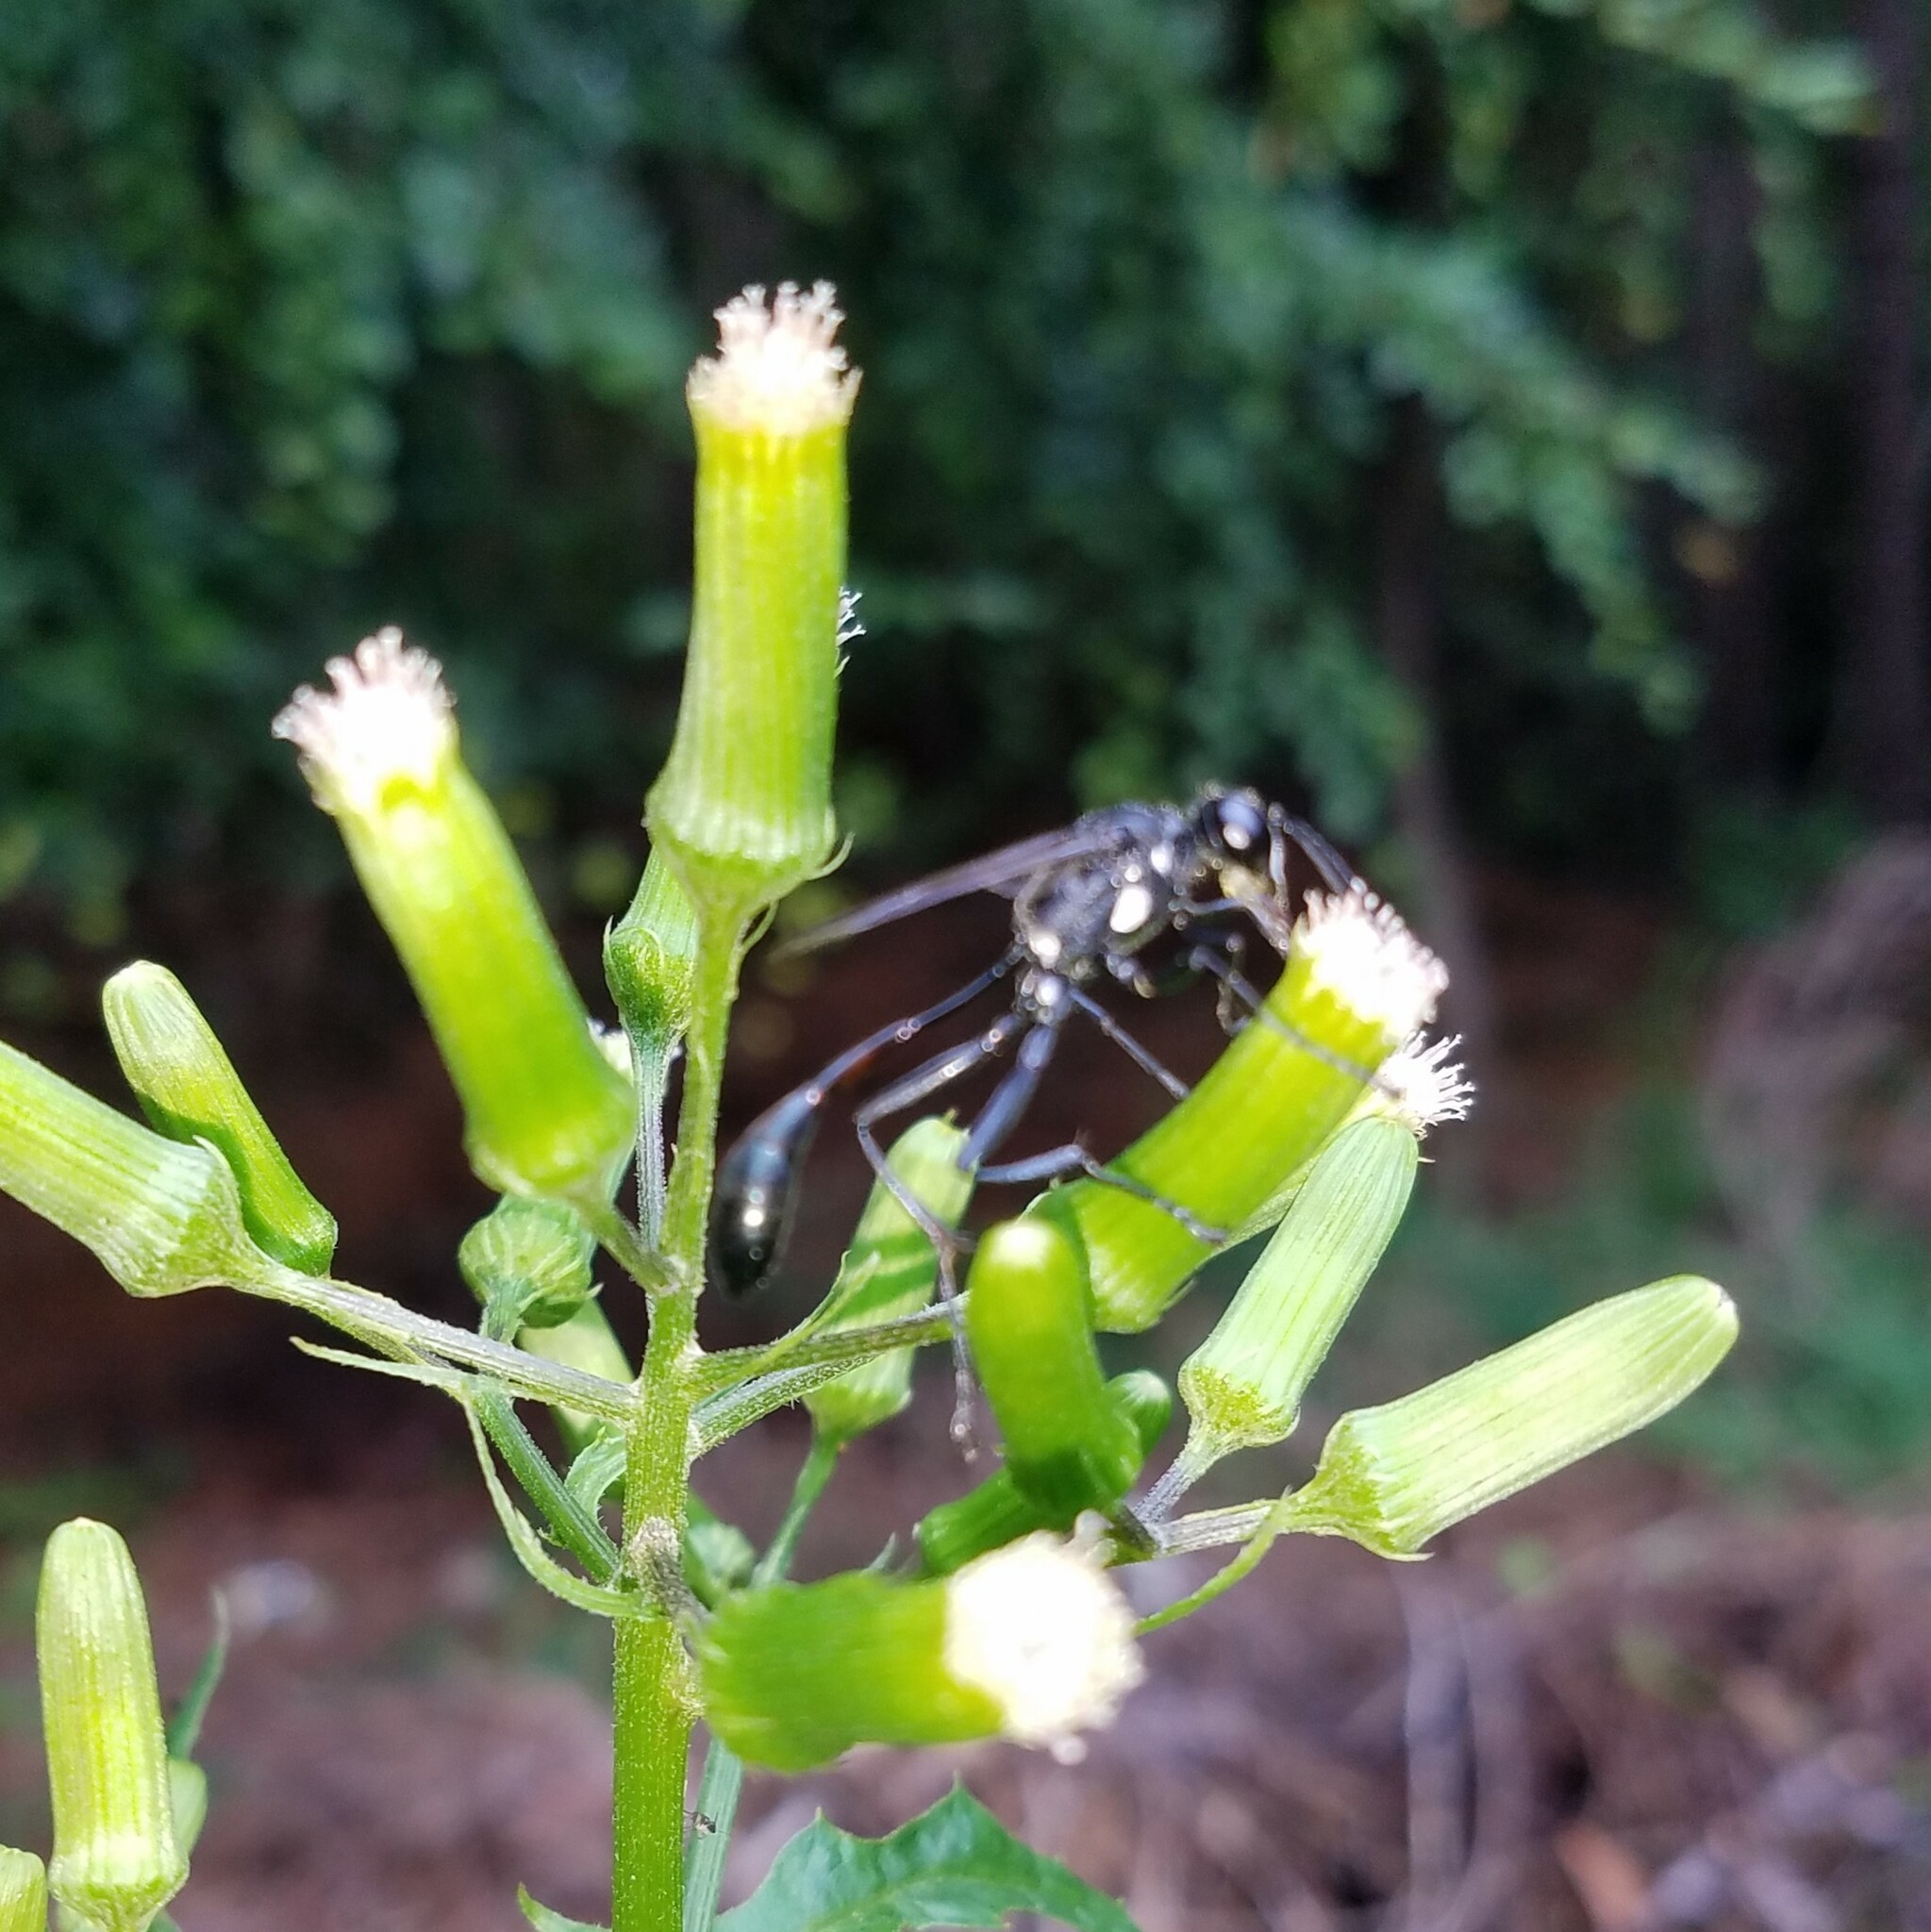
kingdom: Animalia
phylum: Arthropoda
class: Insecta
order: Hymenoptera
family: Sphecidae
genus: Eremnophila
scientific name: Eremnophila aureonotata
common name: Gold-marked thread-waisted wasp
